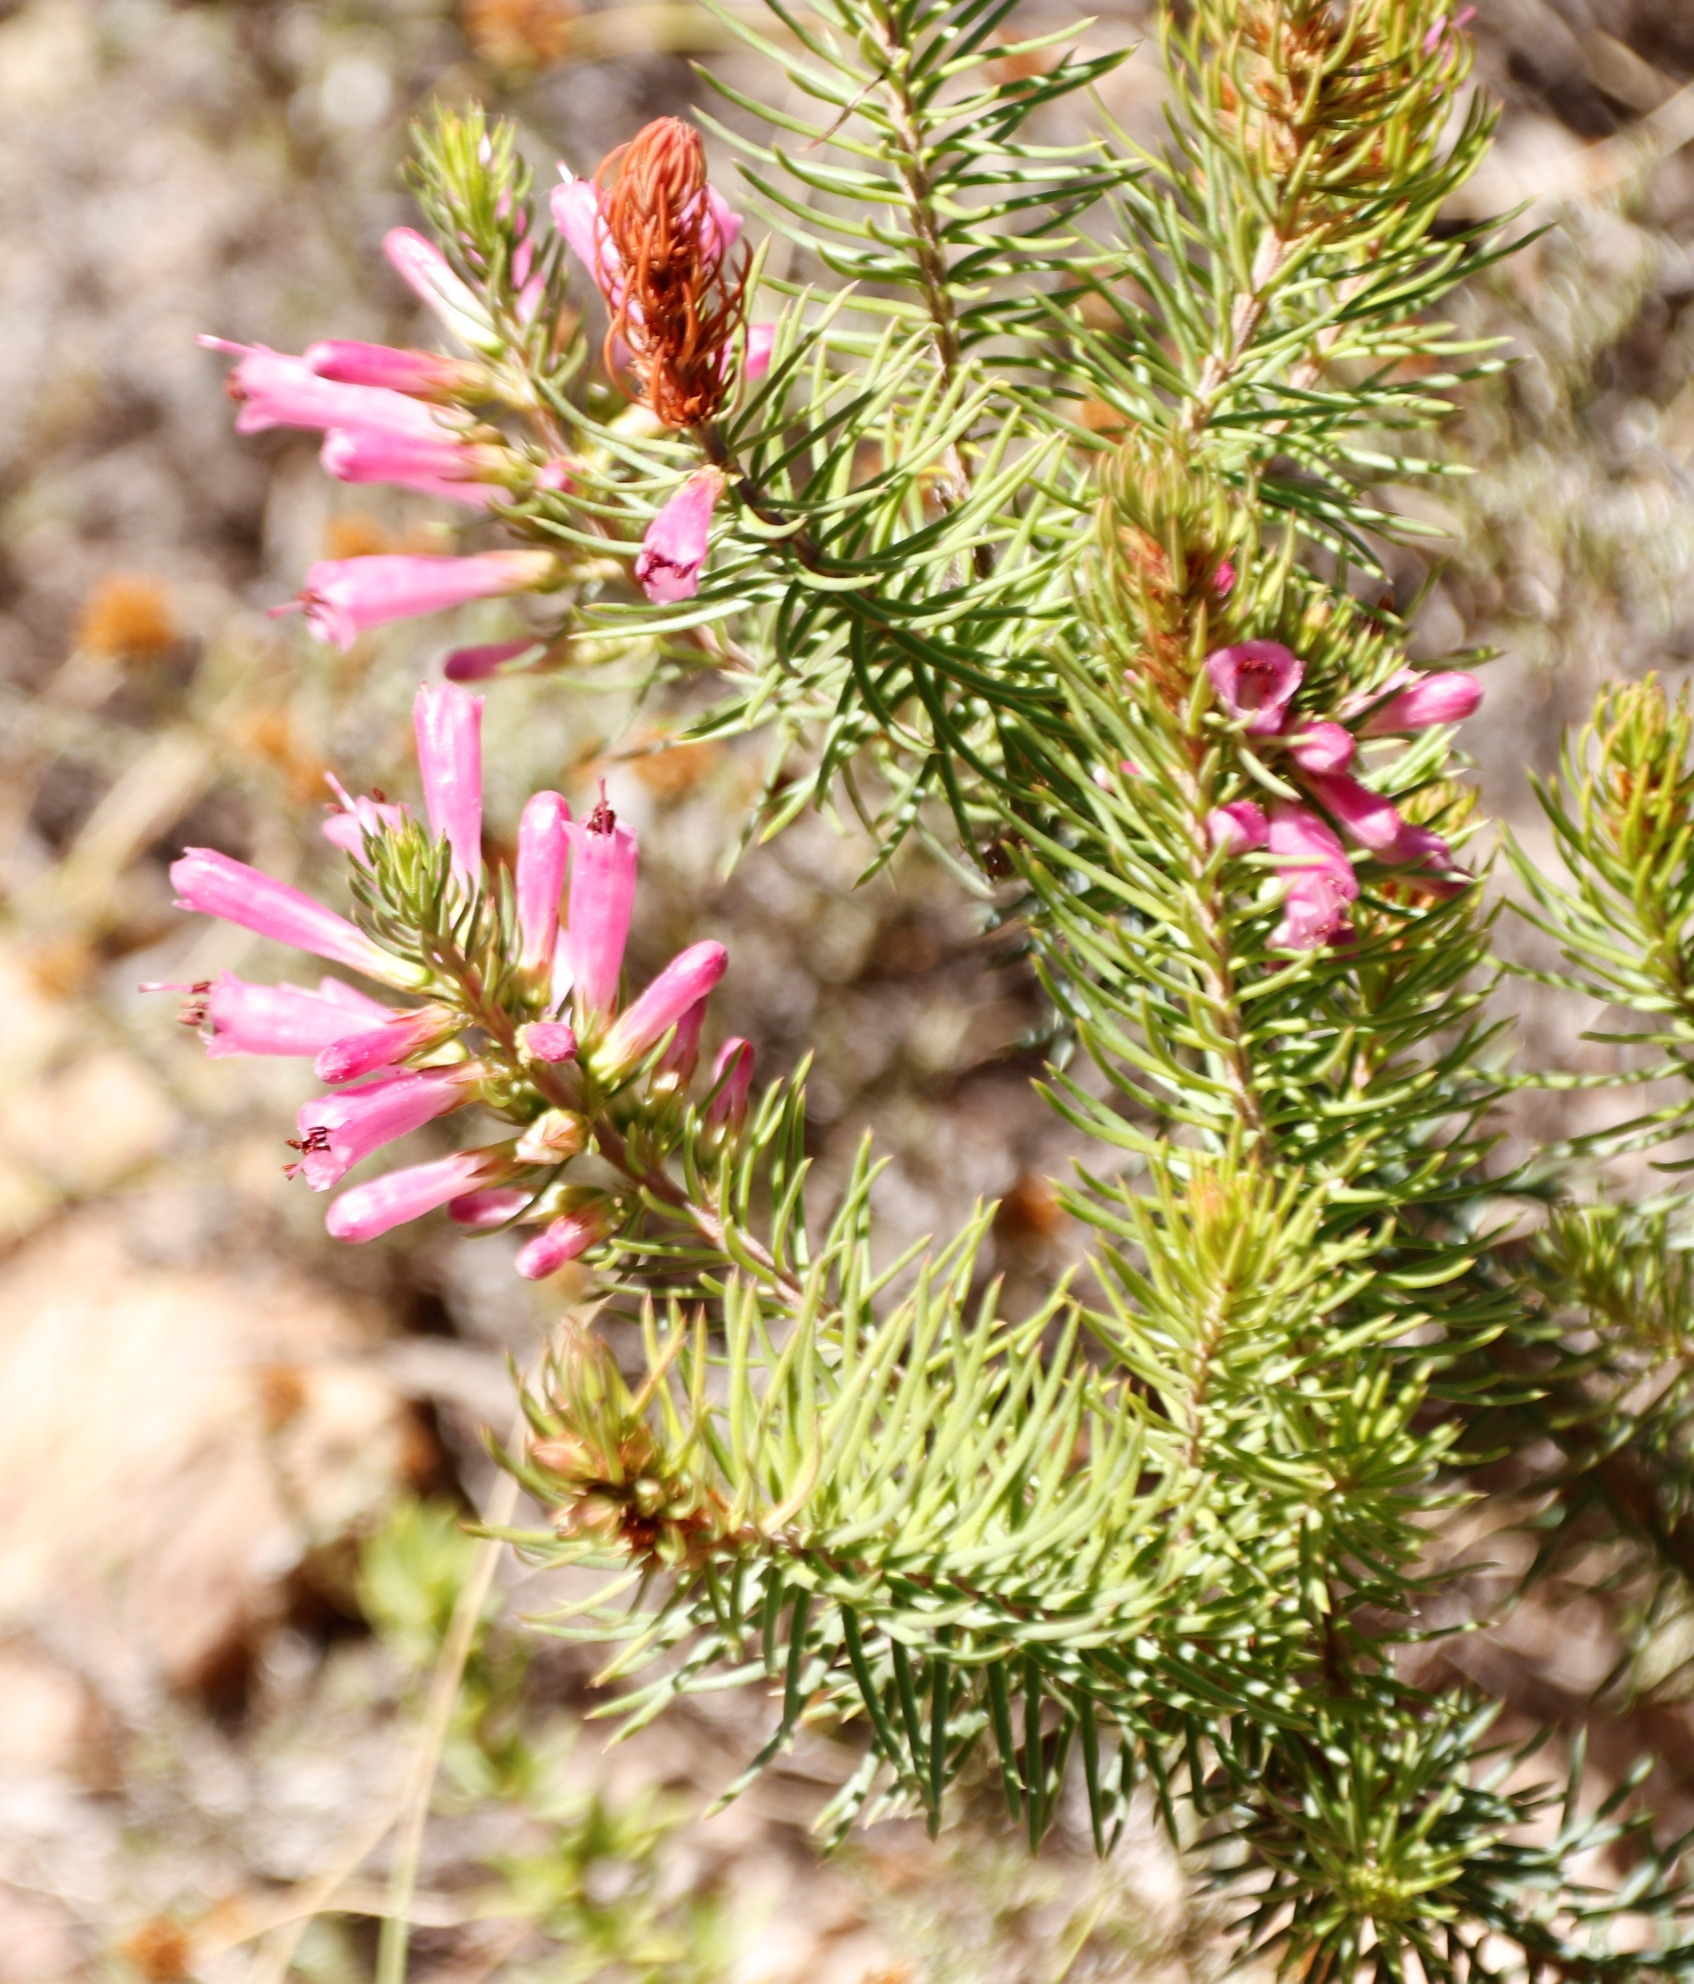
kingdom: Plantae
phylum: Tracheophyta
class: Magnoliopsida
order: Ericales
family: Ericaceae
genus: Erica
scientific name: Erica abietina
